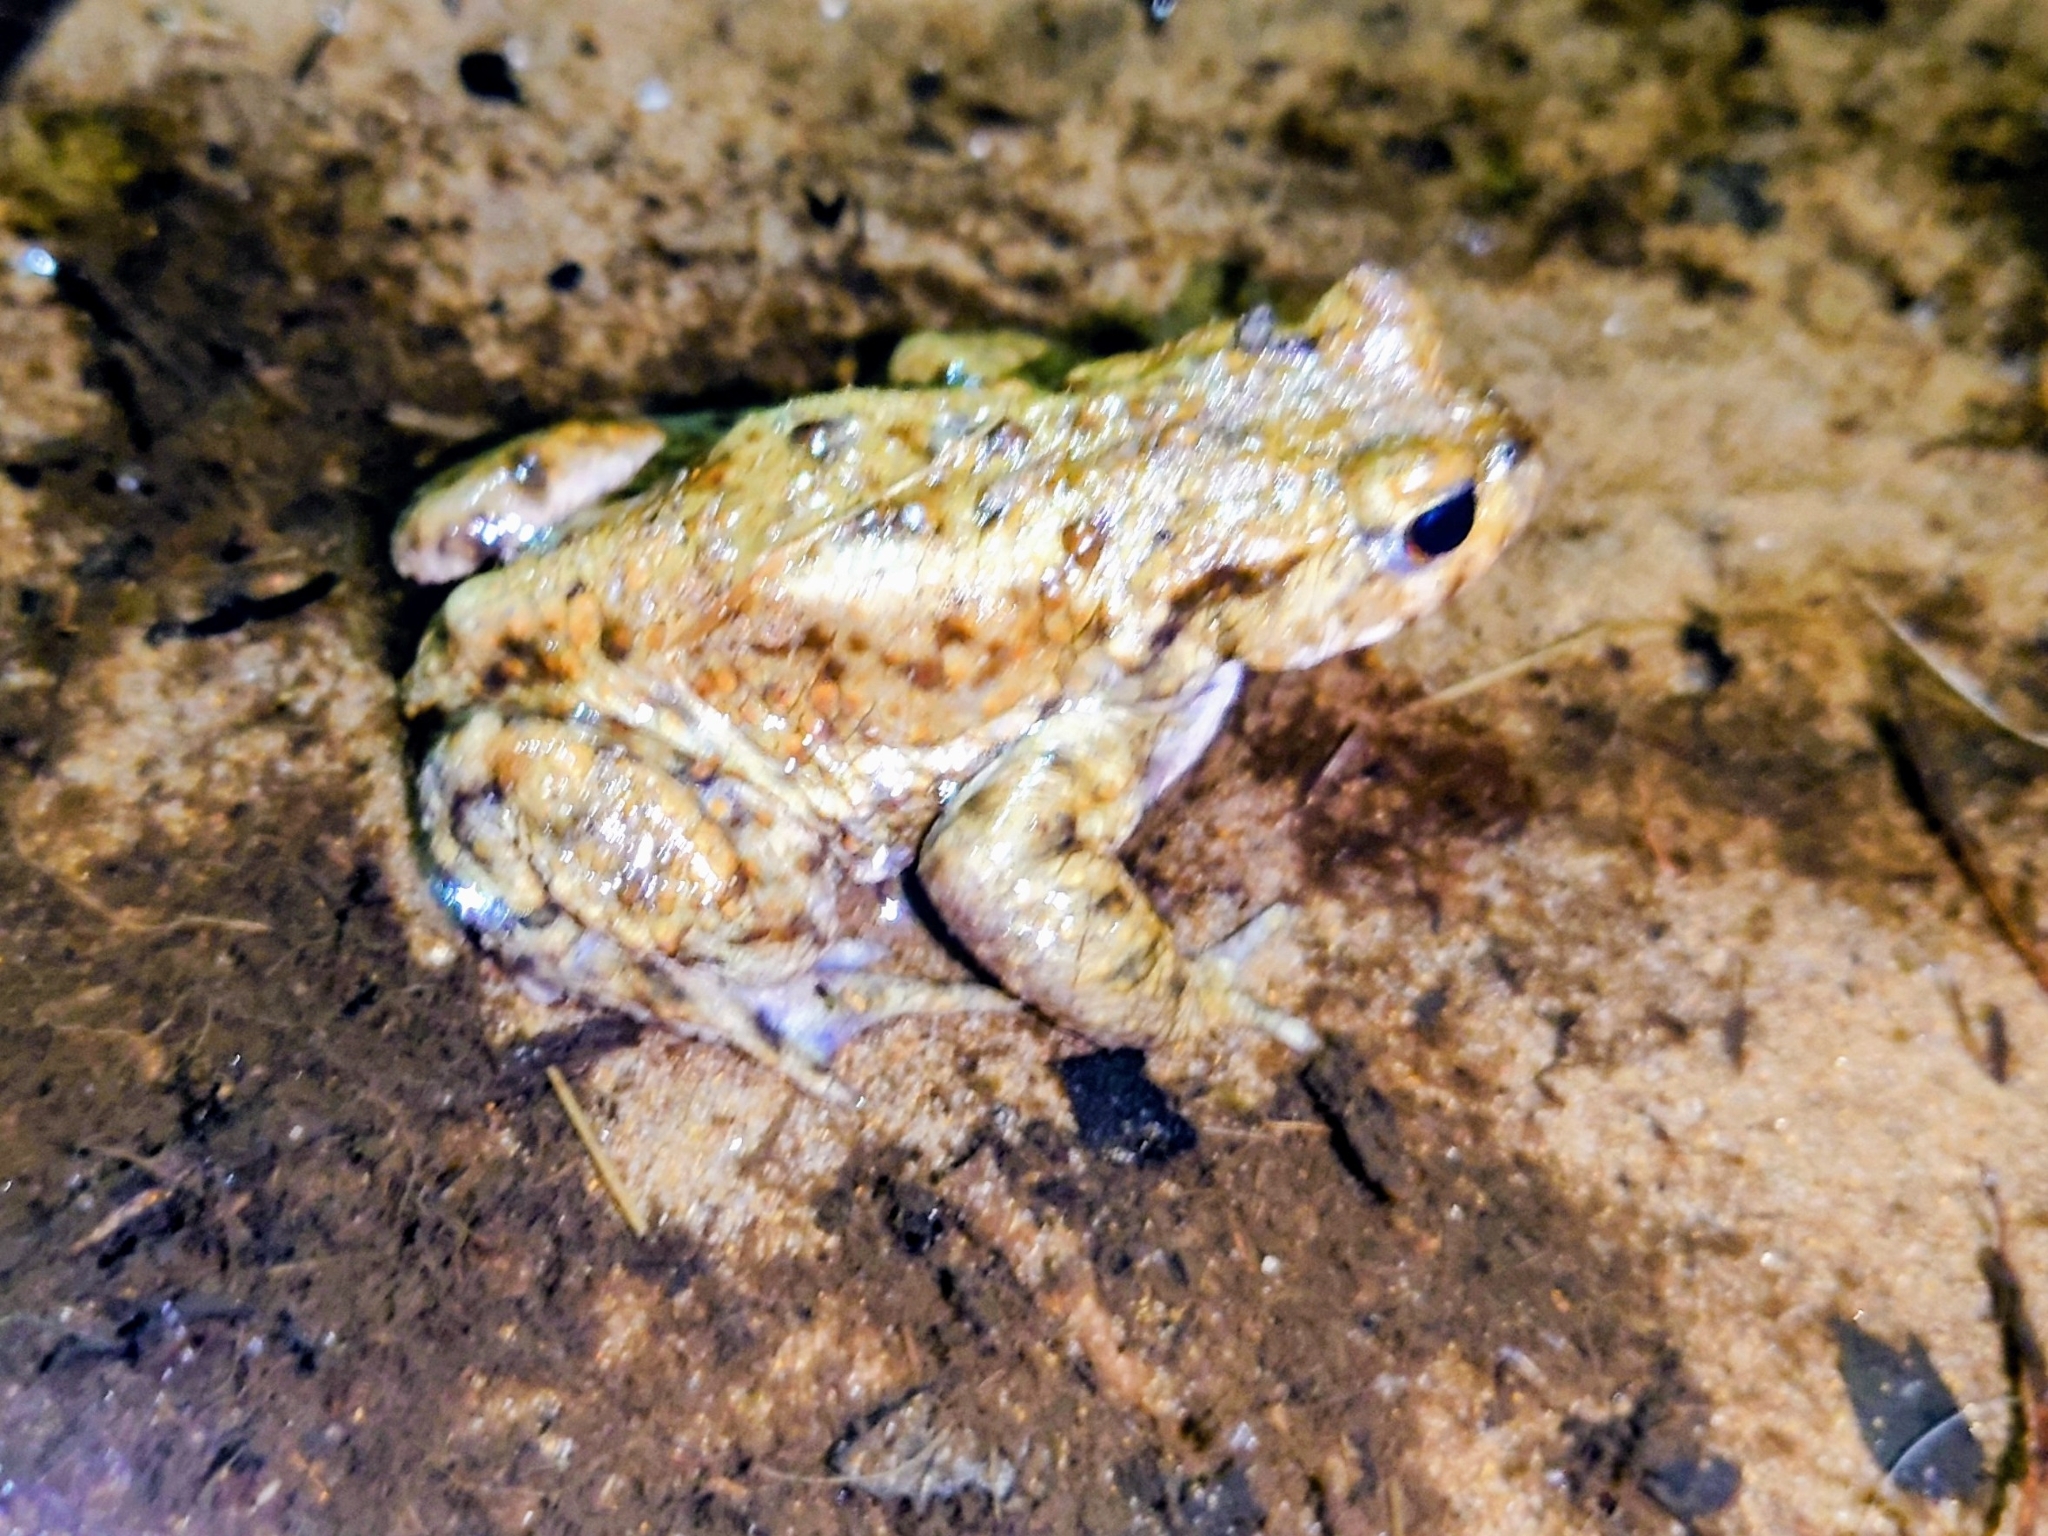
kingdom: Animalia
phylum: Chordata
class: Amphibia
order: Anura
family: Bufonidae
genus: Bufo
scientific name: Bufo bufo
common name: Common toad
